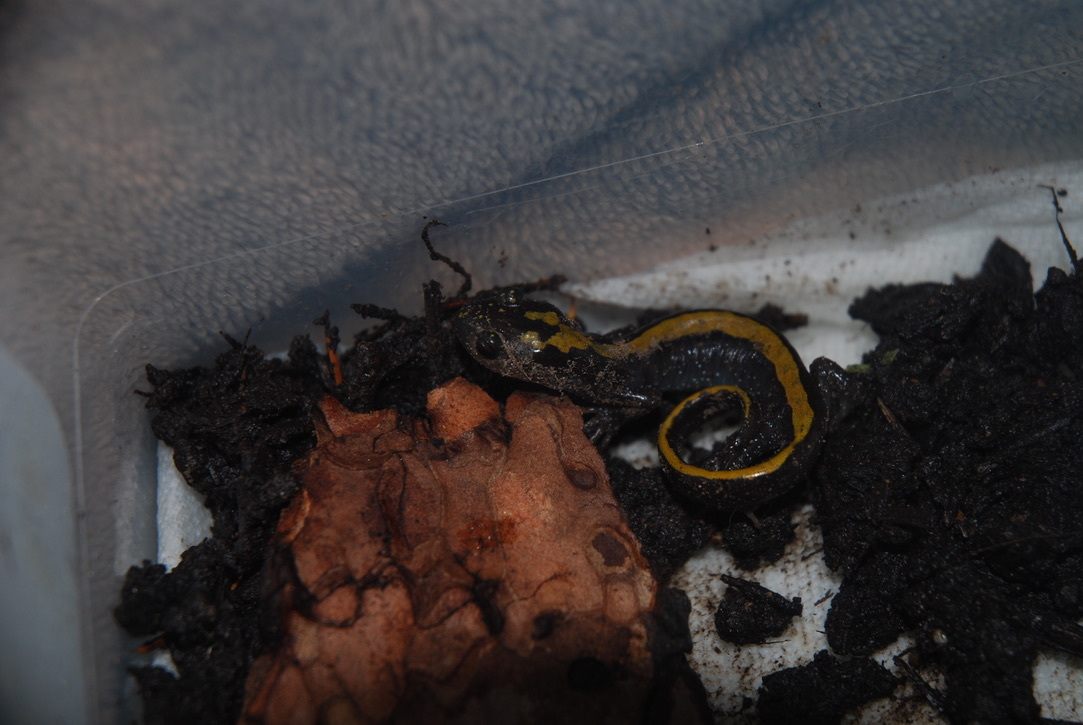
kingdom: Animalia
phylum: Chordata
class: Amphibia
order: Caudata
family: Ambystomatidae
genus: Ambystoma
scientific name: Ambystoma macrodactylum
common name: Long-toed salamander
